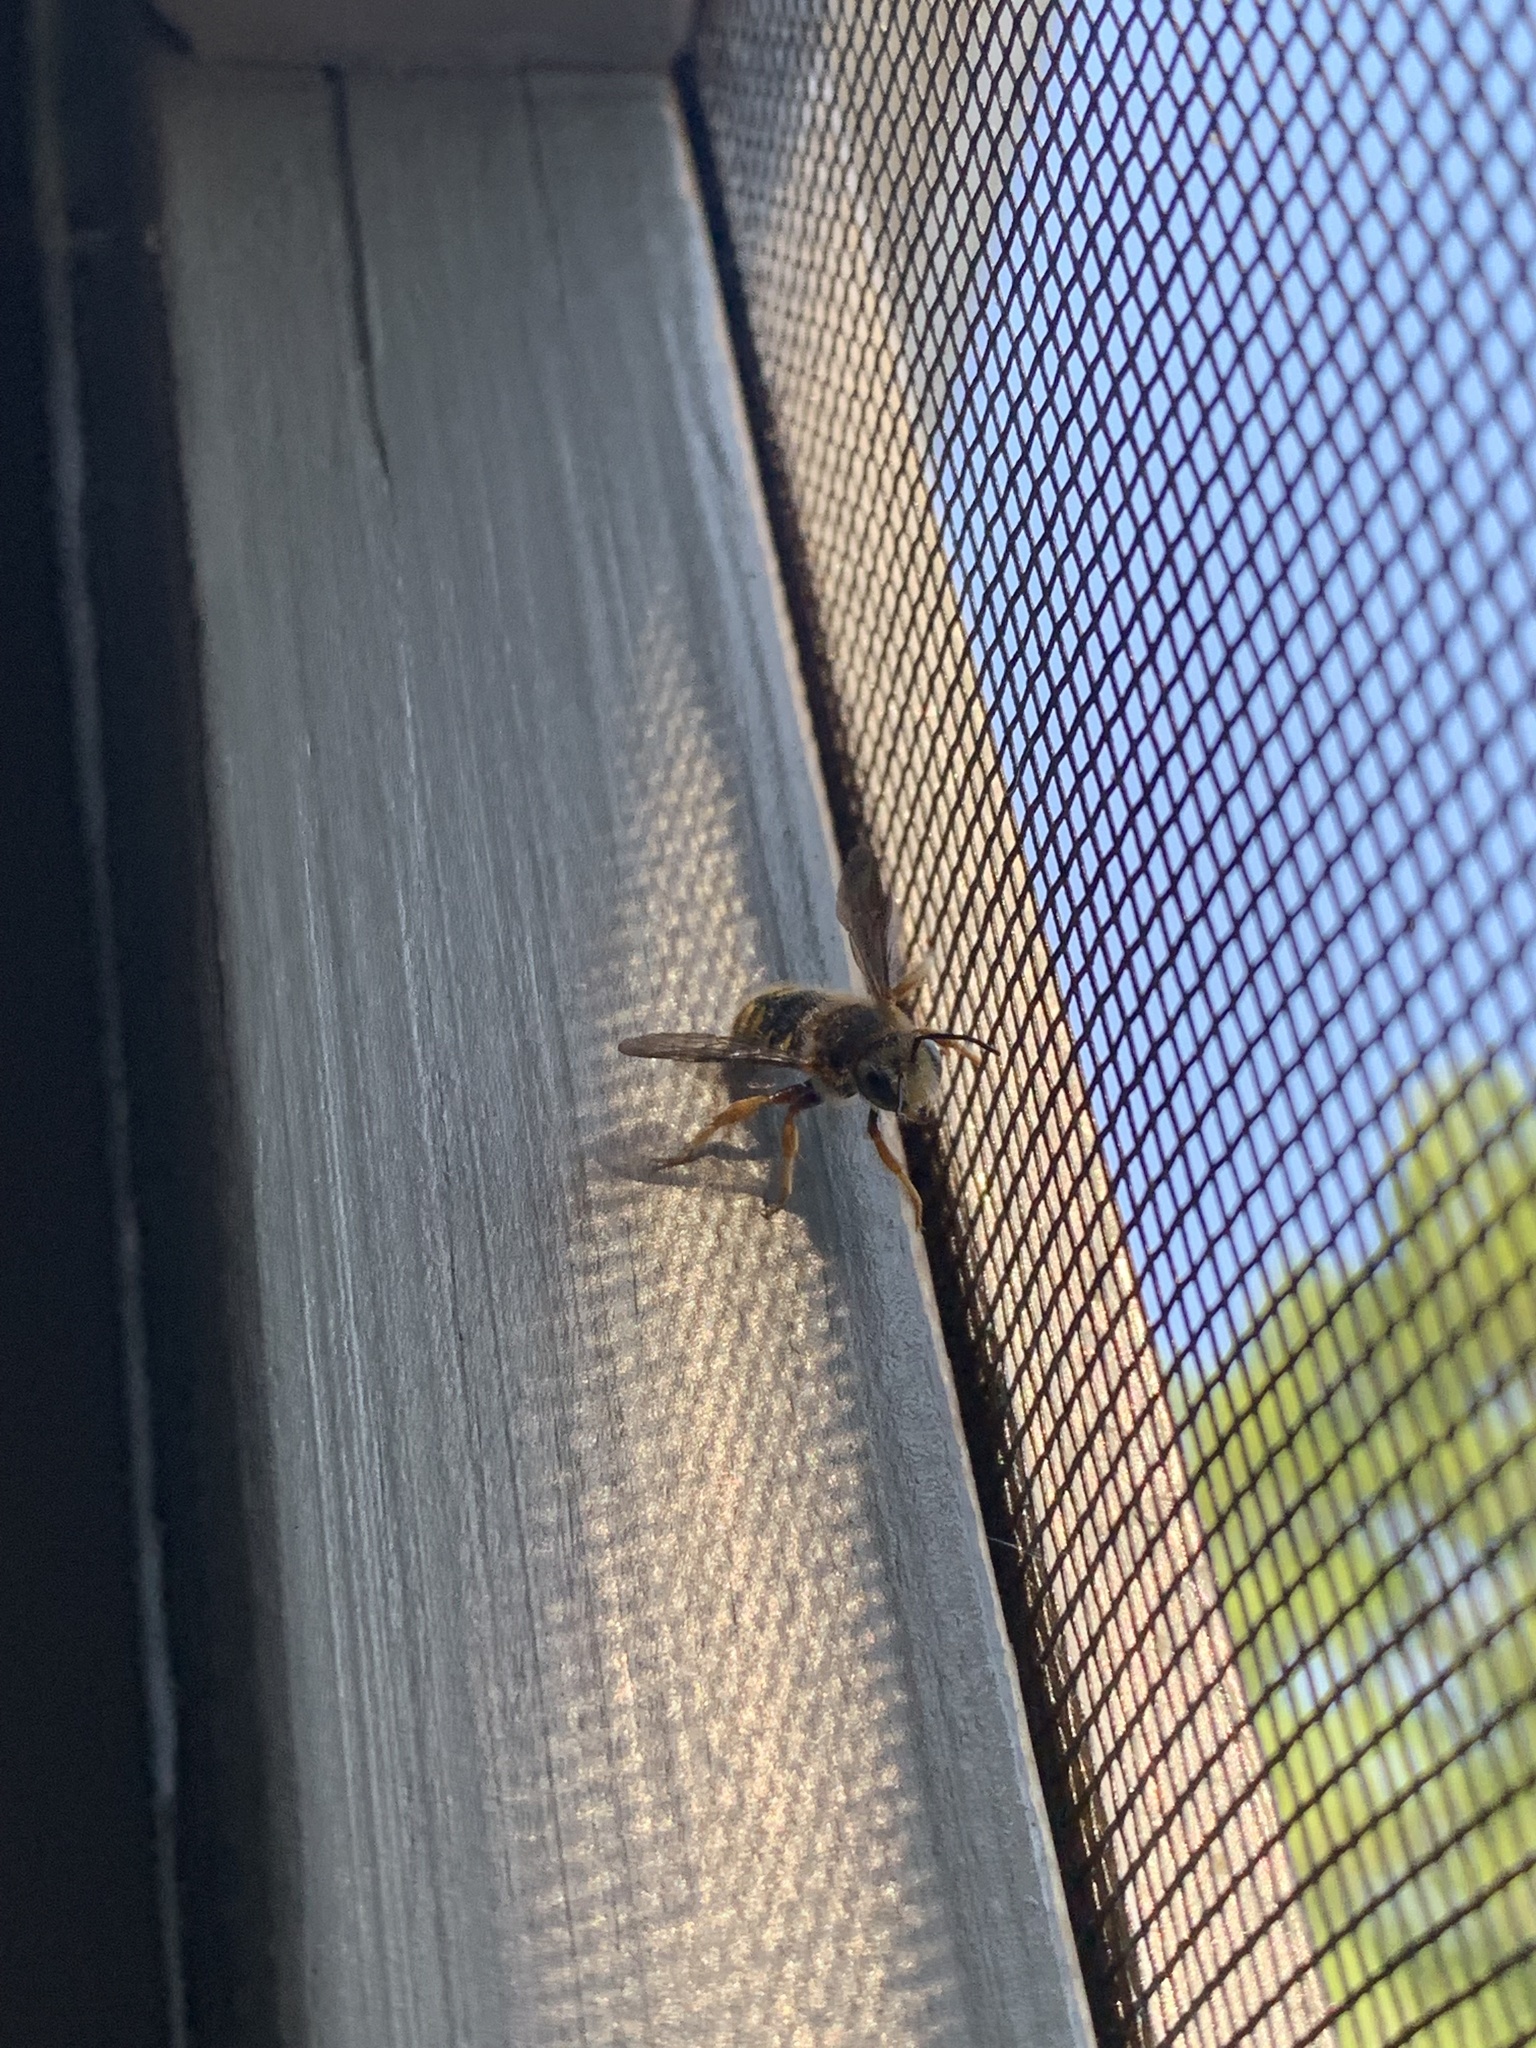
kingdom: Animalia
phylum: Arthropoda
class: Insecta
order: Hymenoptera
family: Megachilidae
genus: Anthidium
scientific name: Anthidium oblongatum
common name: Oblong wool carder bee
